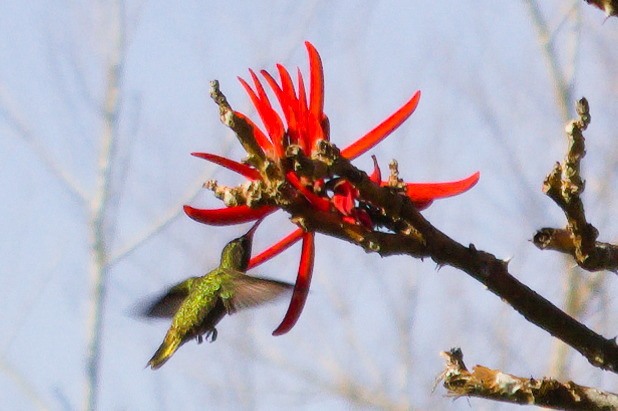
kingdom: Animalia
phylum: Chordata
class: Aves
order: Apodiformes
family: Trochilidae
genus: Hylocharis
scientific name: Hylocharis chrysura
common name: Gilded sapphire
